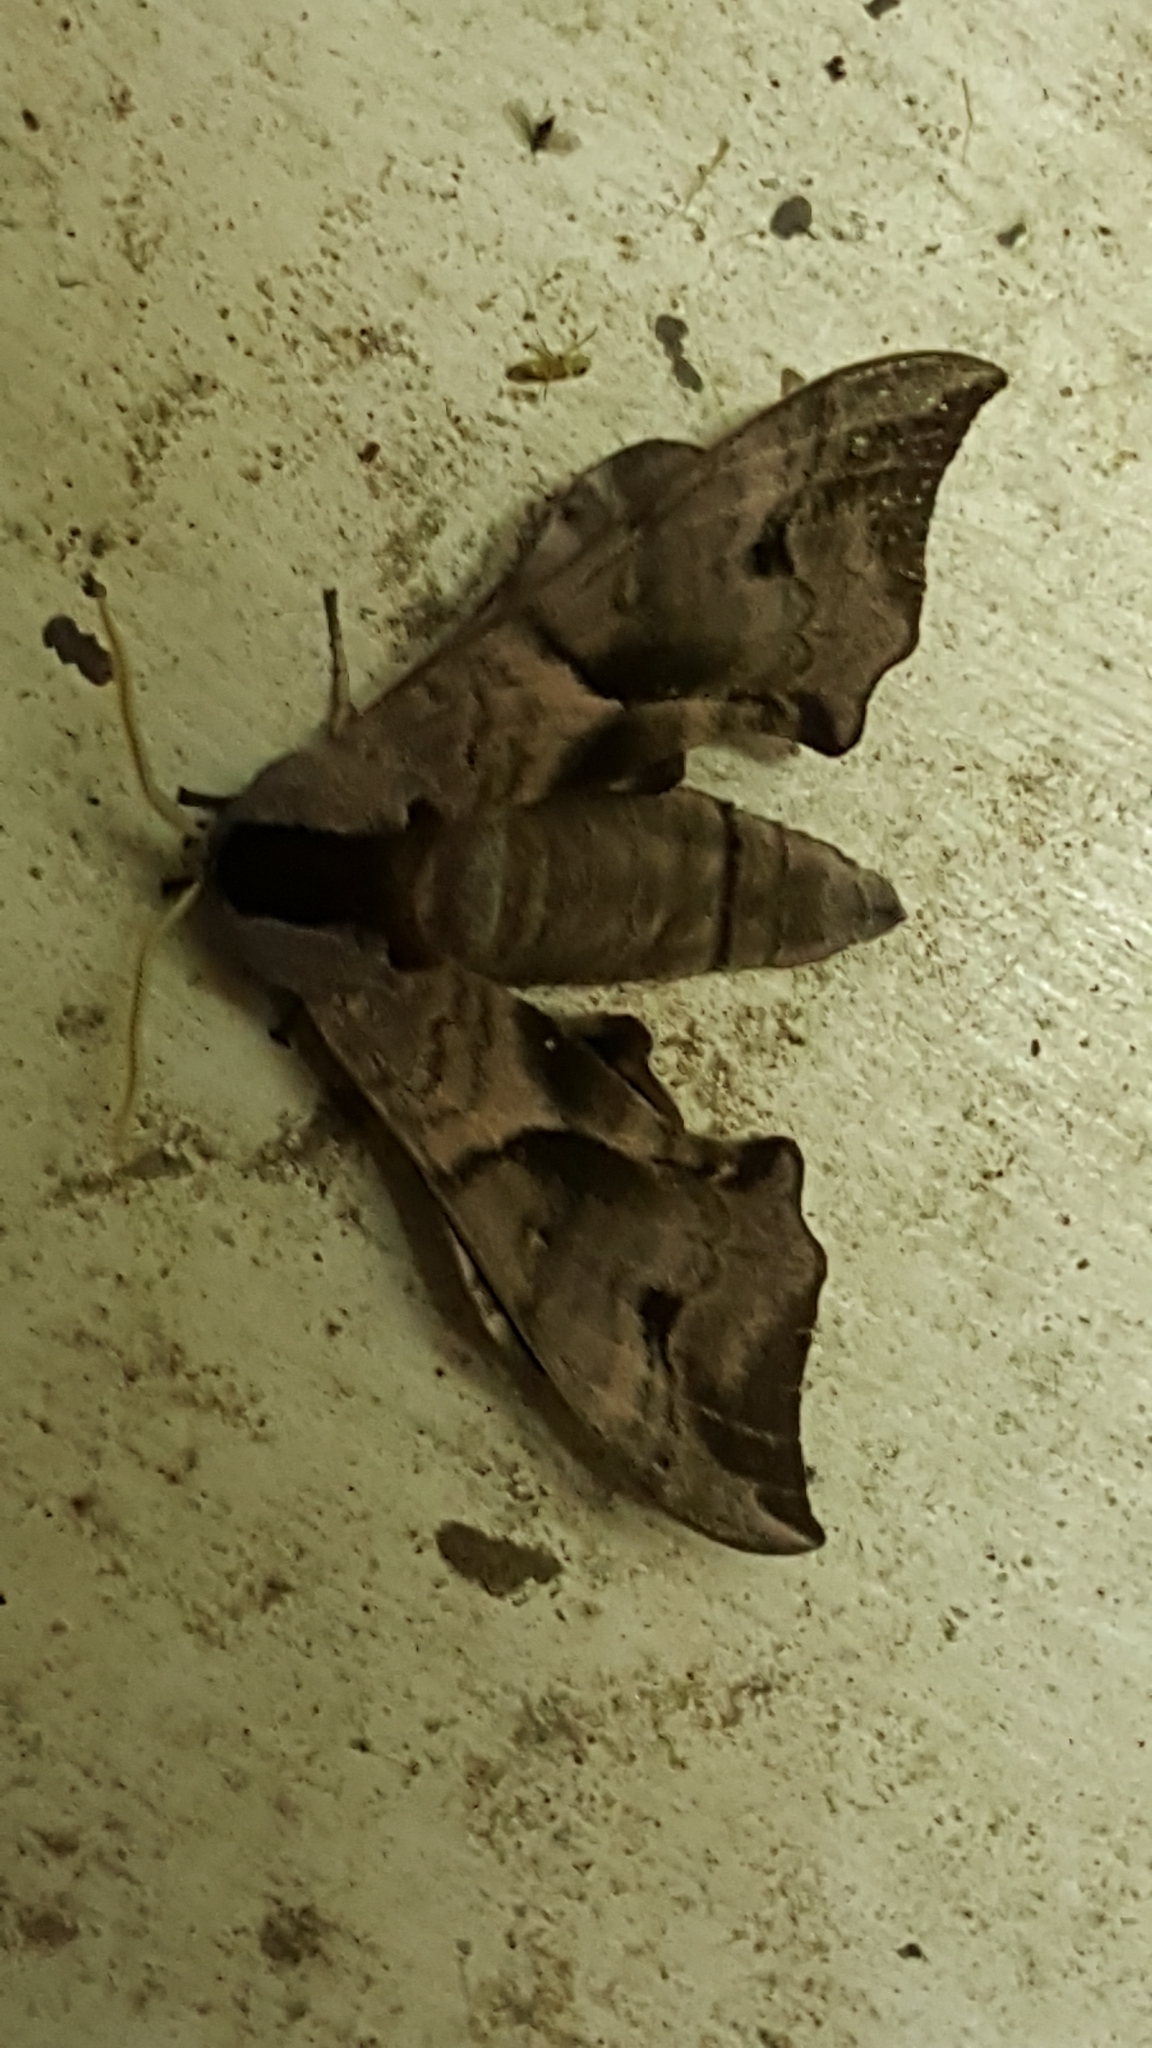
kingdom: Animalia
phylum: Arthropoda
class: Insecta
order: Lepidoptera
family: Sphingidae
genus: Smerinthus
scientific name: Smerinthus ocellata
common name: Eyed hawk-moth
